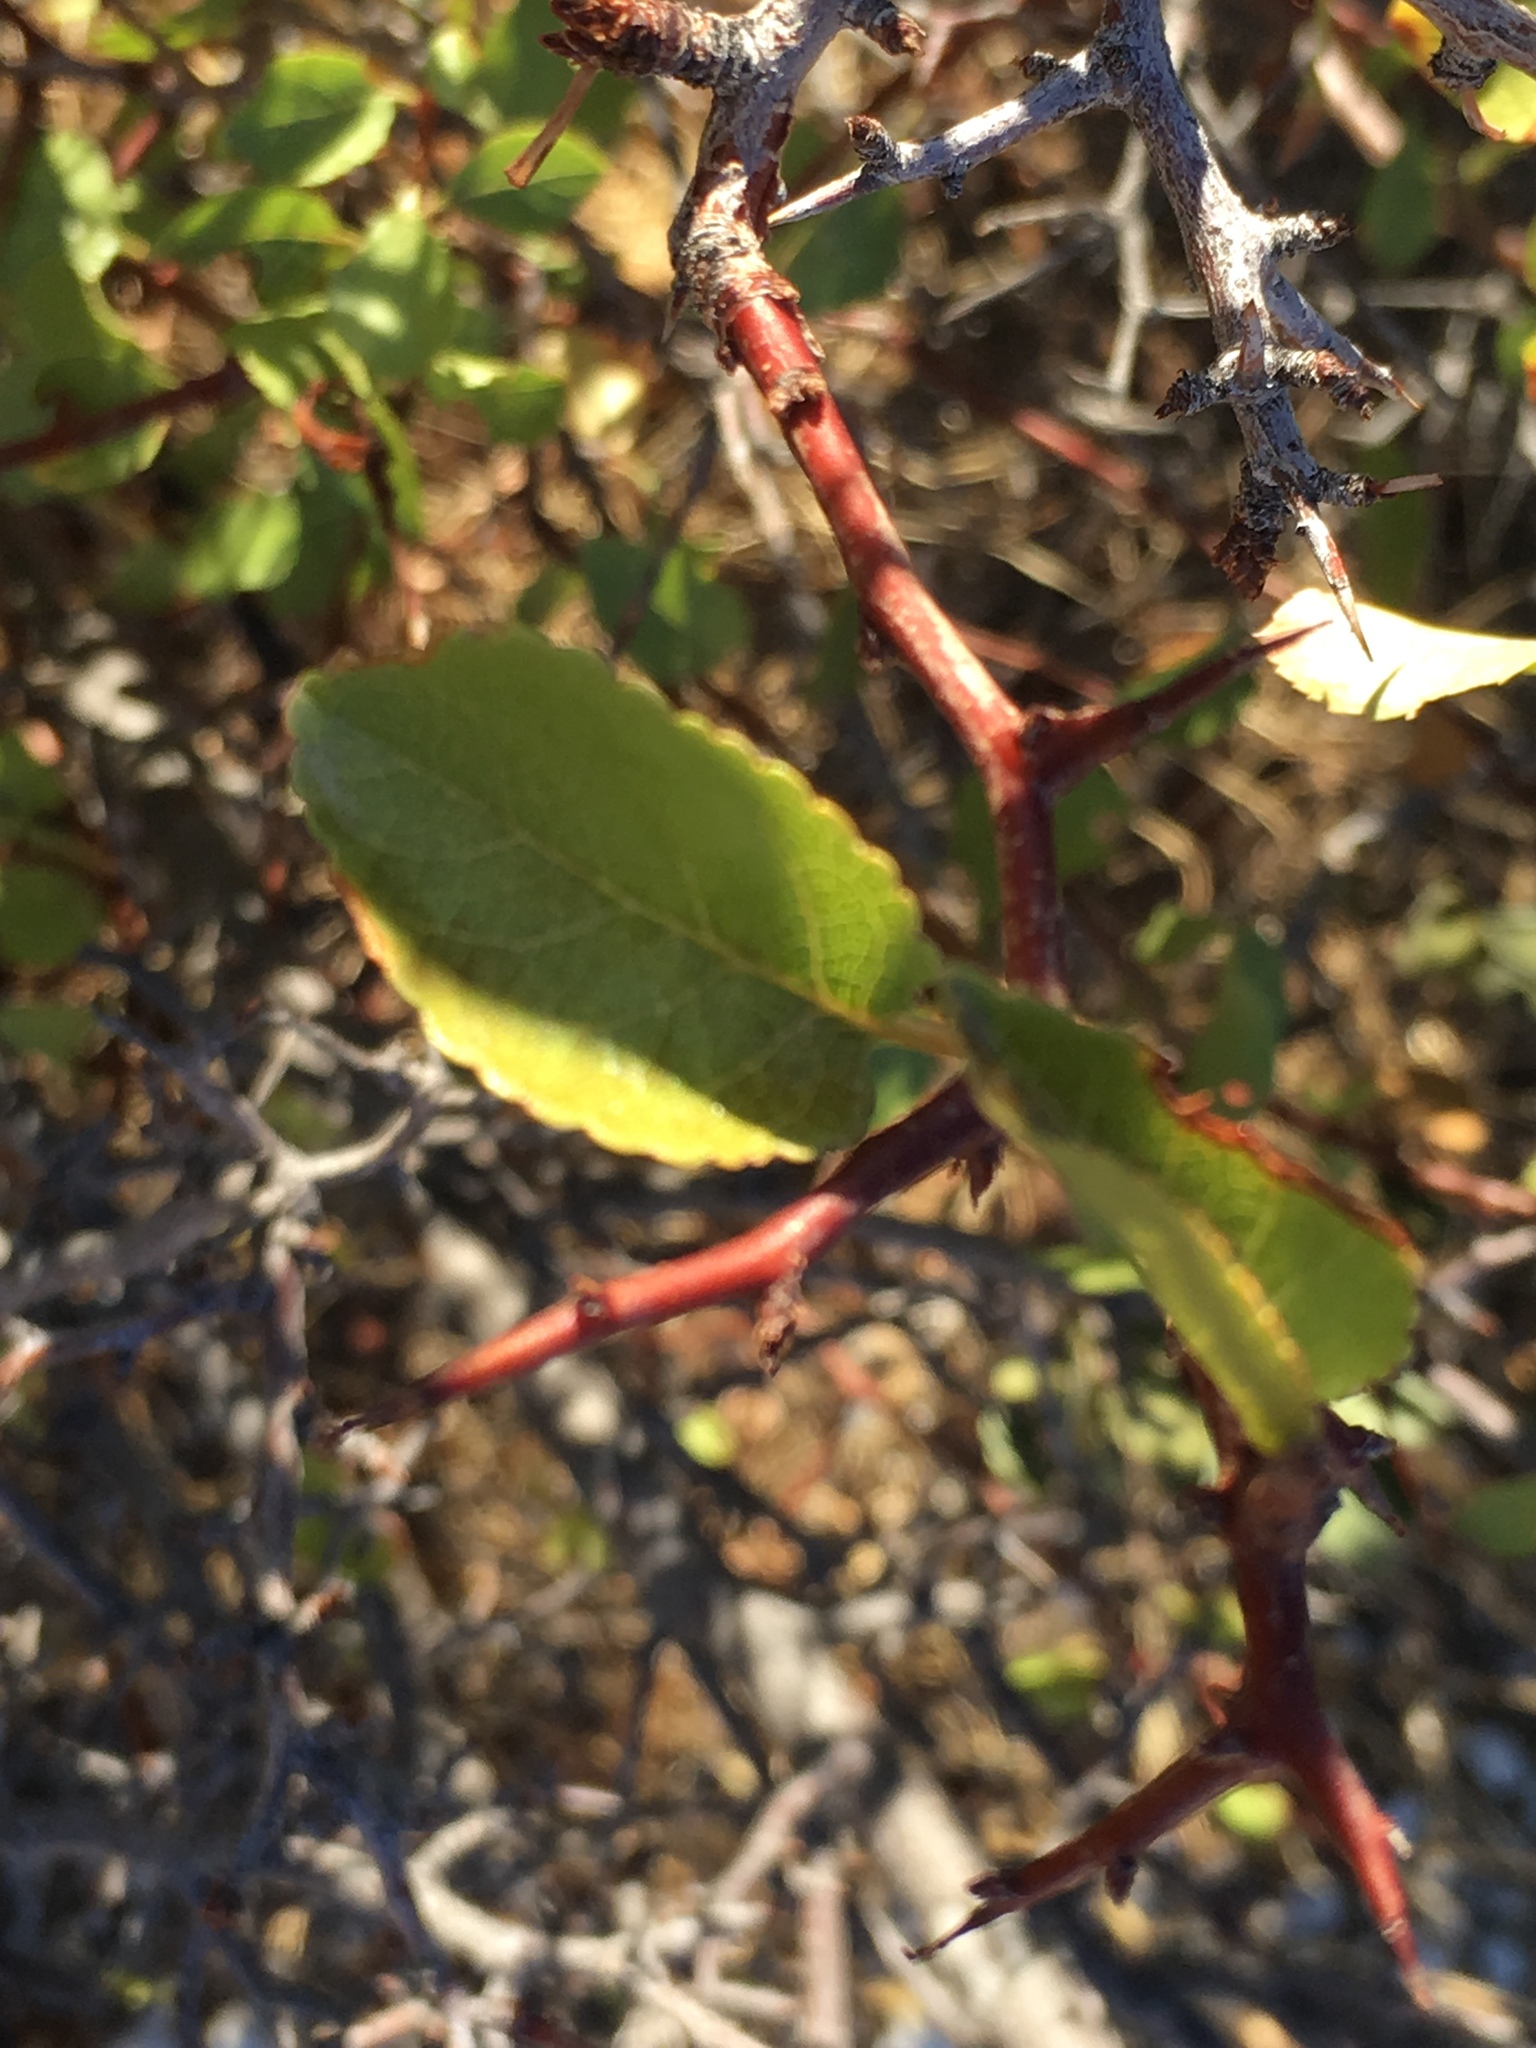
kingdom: Plantae
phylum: Tracheophyta
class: Magnoliopsida
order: Rosales
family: Rosaceae
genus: Prunus
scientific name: Prunus fremontii
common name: Desert apricot
